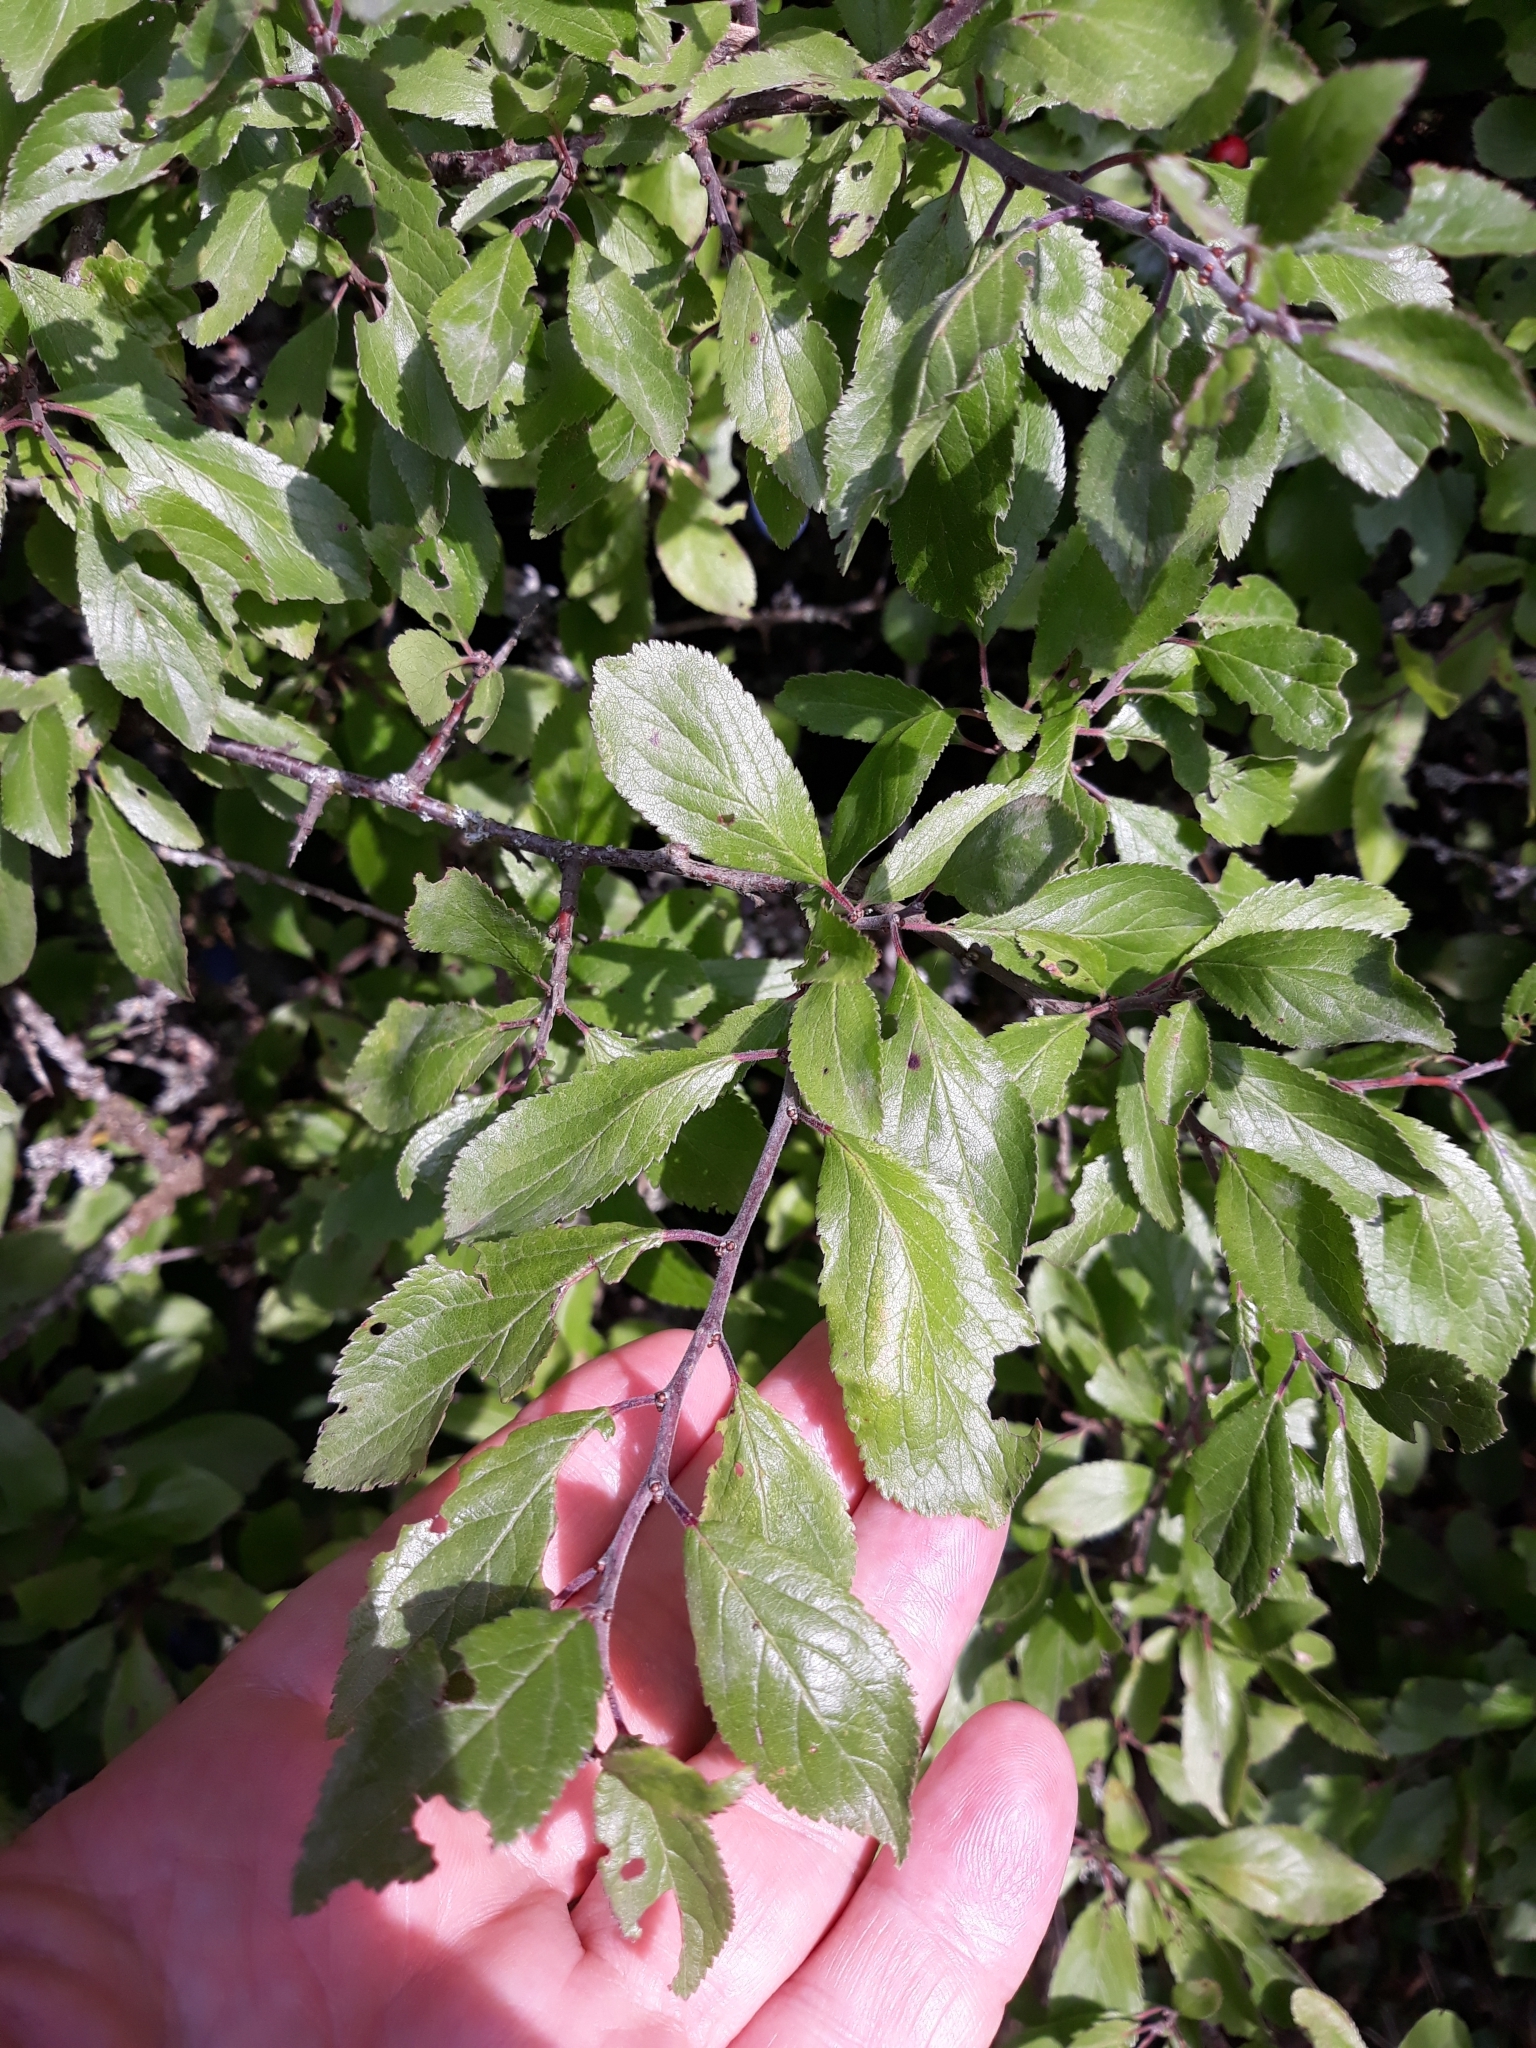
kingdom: Plantae
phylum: Tracheophyta
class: Magnoliopsida
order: Rosales
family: Rosaceae
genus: Prunus
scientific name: Prunus spinosa
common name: Blackthorn
